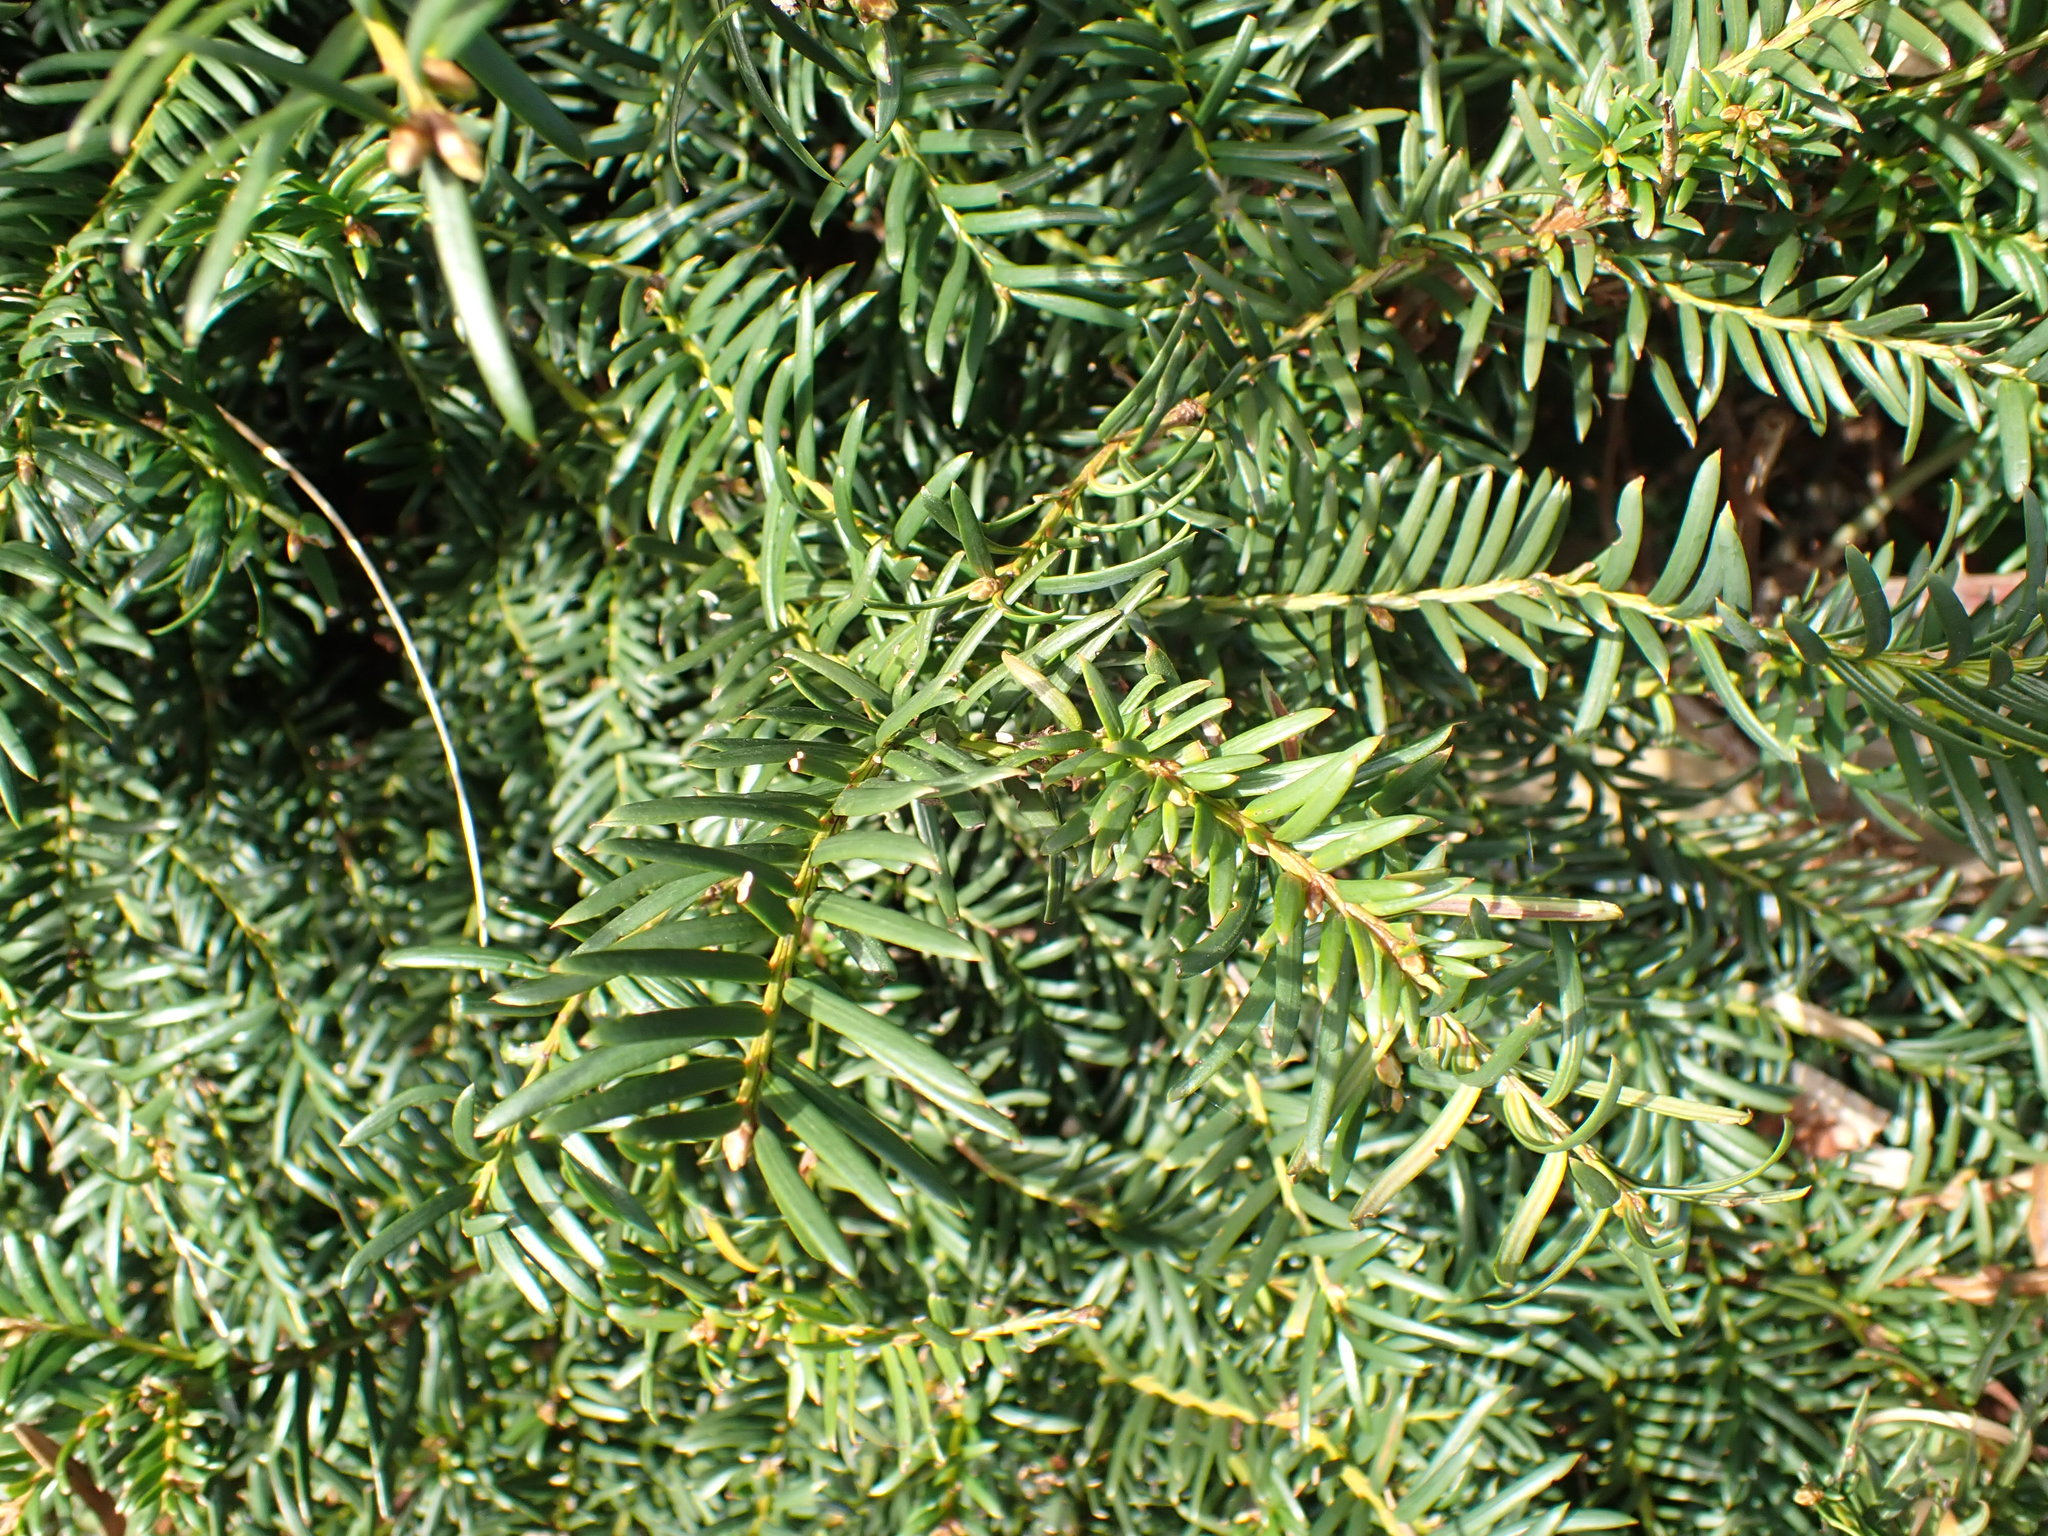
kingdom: Plantae
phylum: Tracheophyta
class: Pinopsida
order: Pinales
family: Taxaceae
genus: Taxus
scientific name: Taxus baccata
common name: Yew
